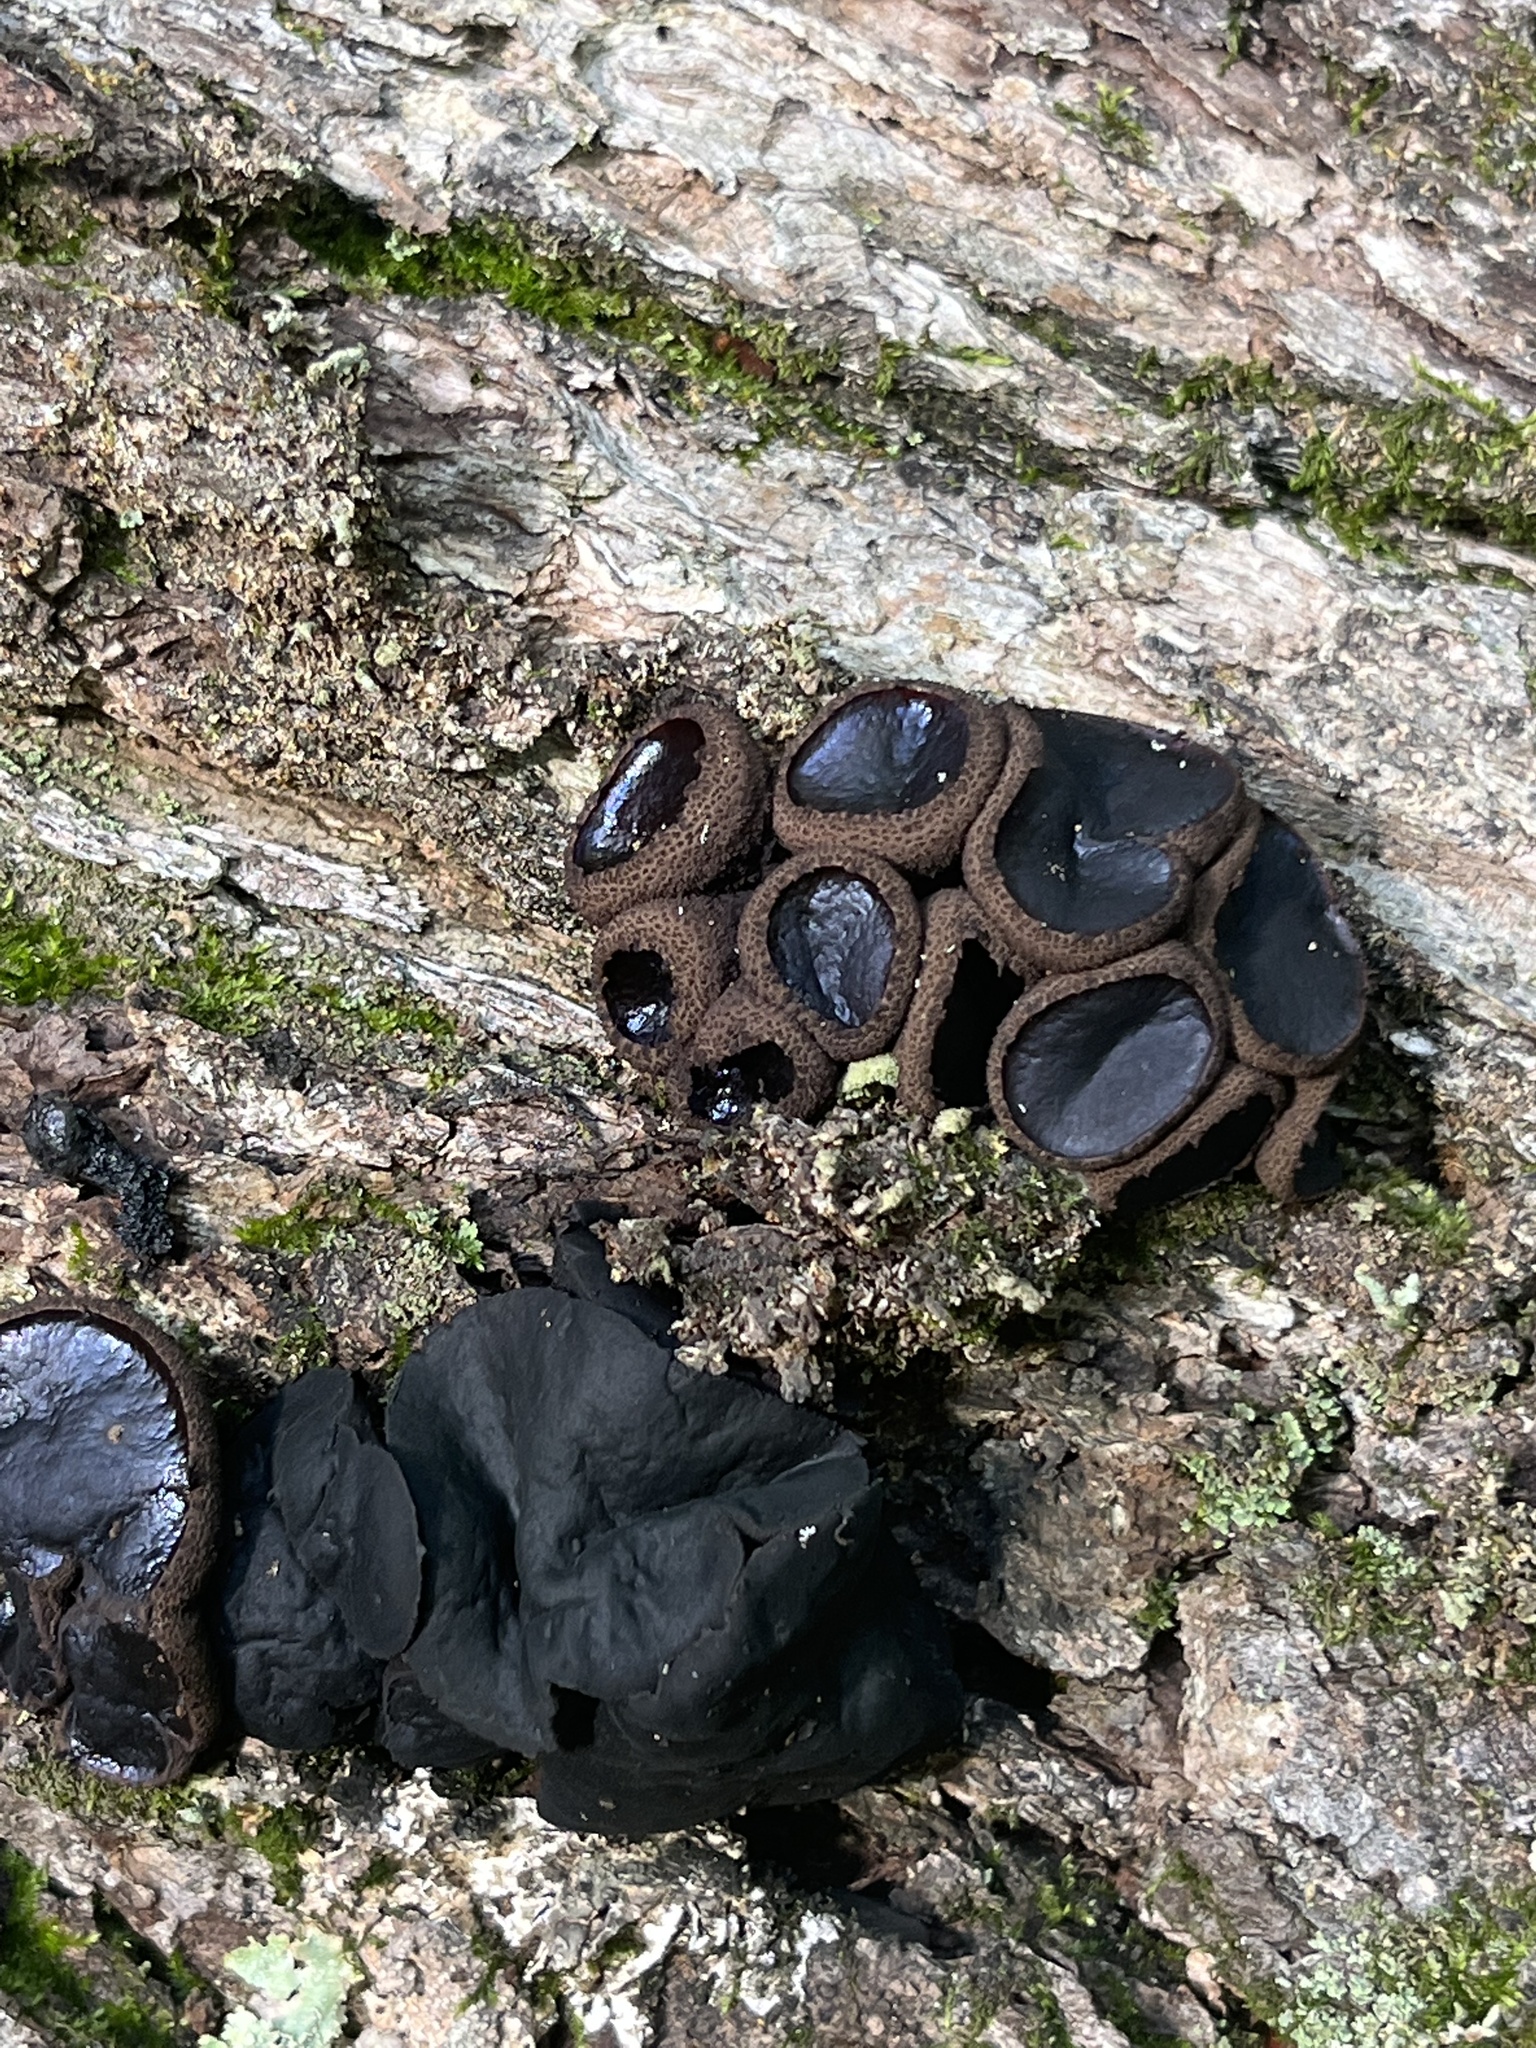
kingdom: Fungi
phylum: Ascomycota
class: Leotiomycetes
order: Phacidiales
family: Phacidiaceae
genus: Bulgaria
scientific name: Bulgaria inquinans
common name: Black bulgar
